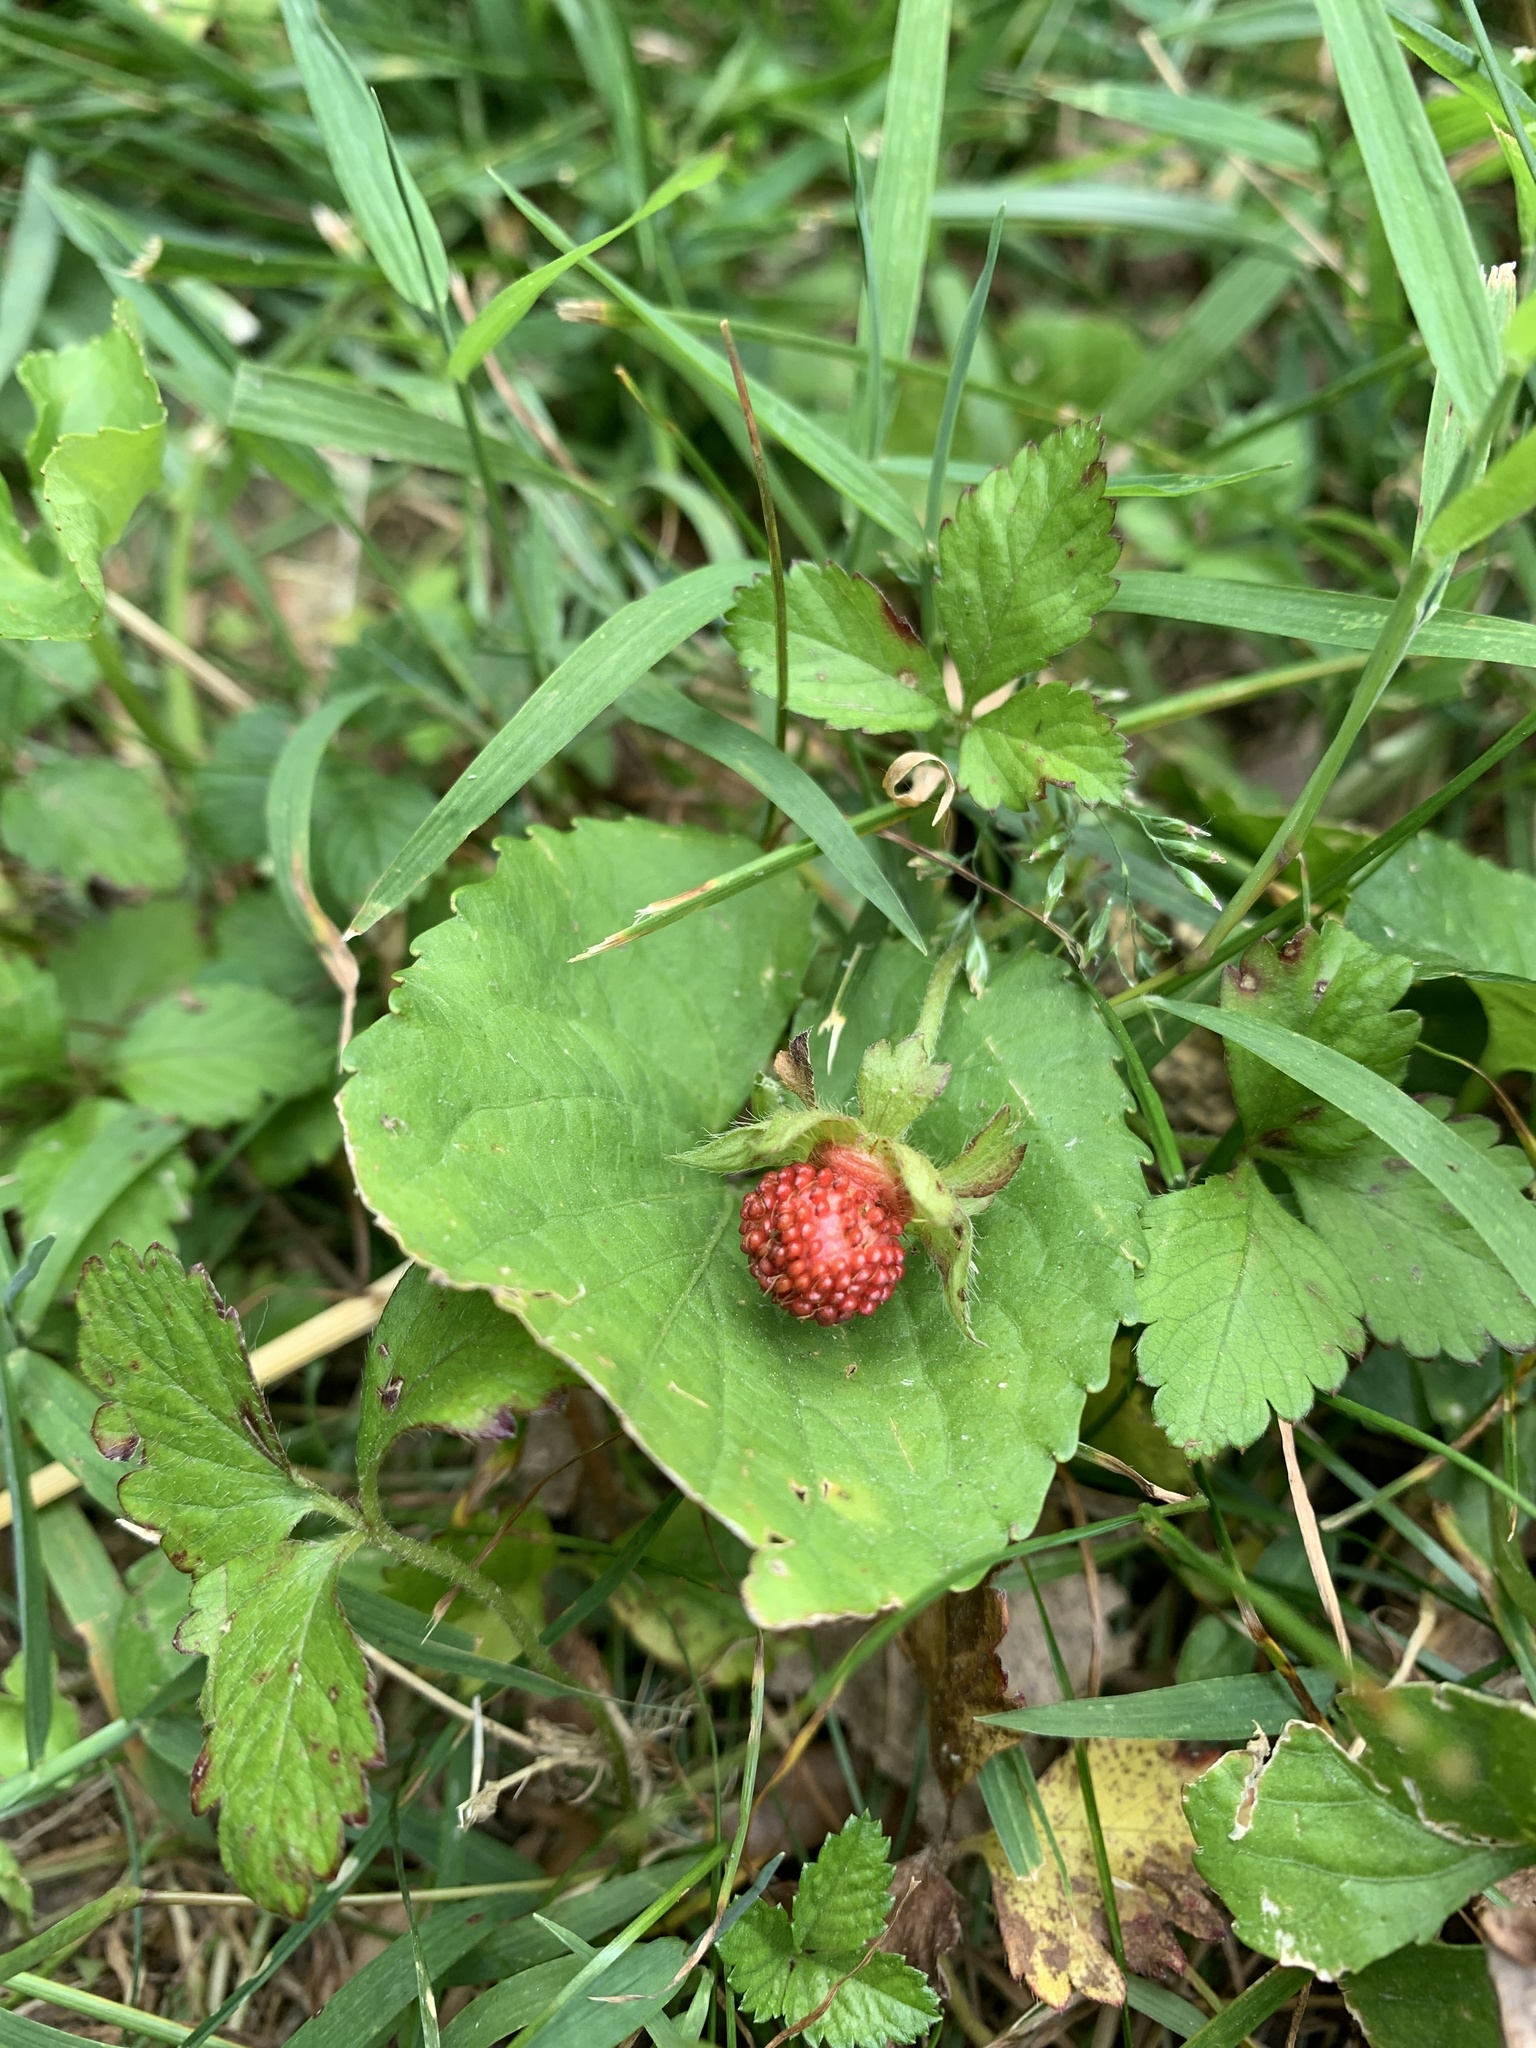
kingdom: Plantae
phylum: Tracheophyta
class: Magnoliopsida
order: Rosales
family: Rosaceae
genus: Potentilla
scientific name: Potentilla indica
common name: Yellow-flowered strawberry
